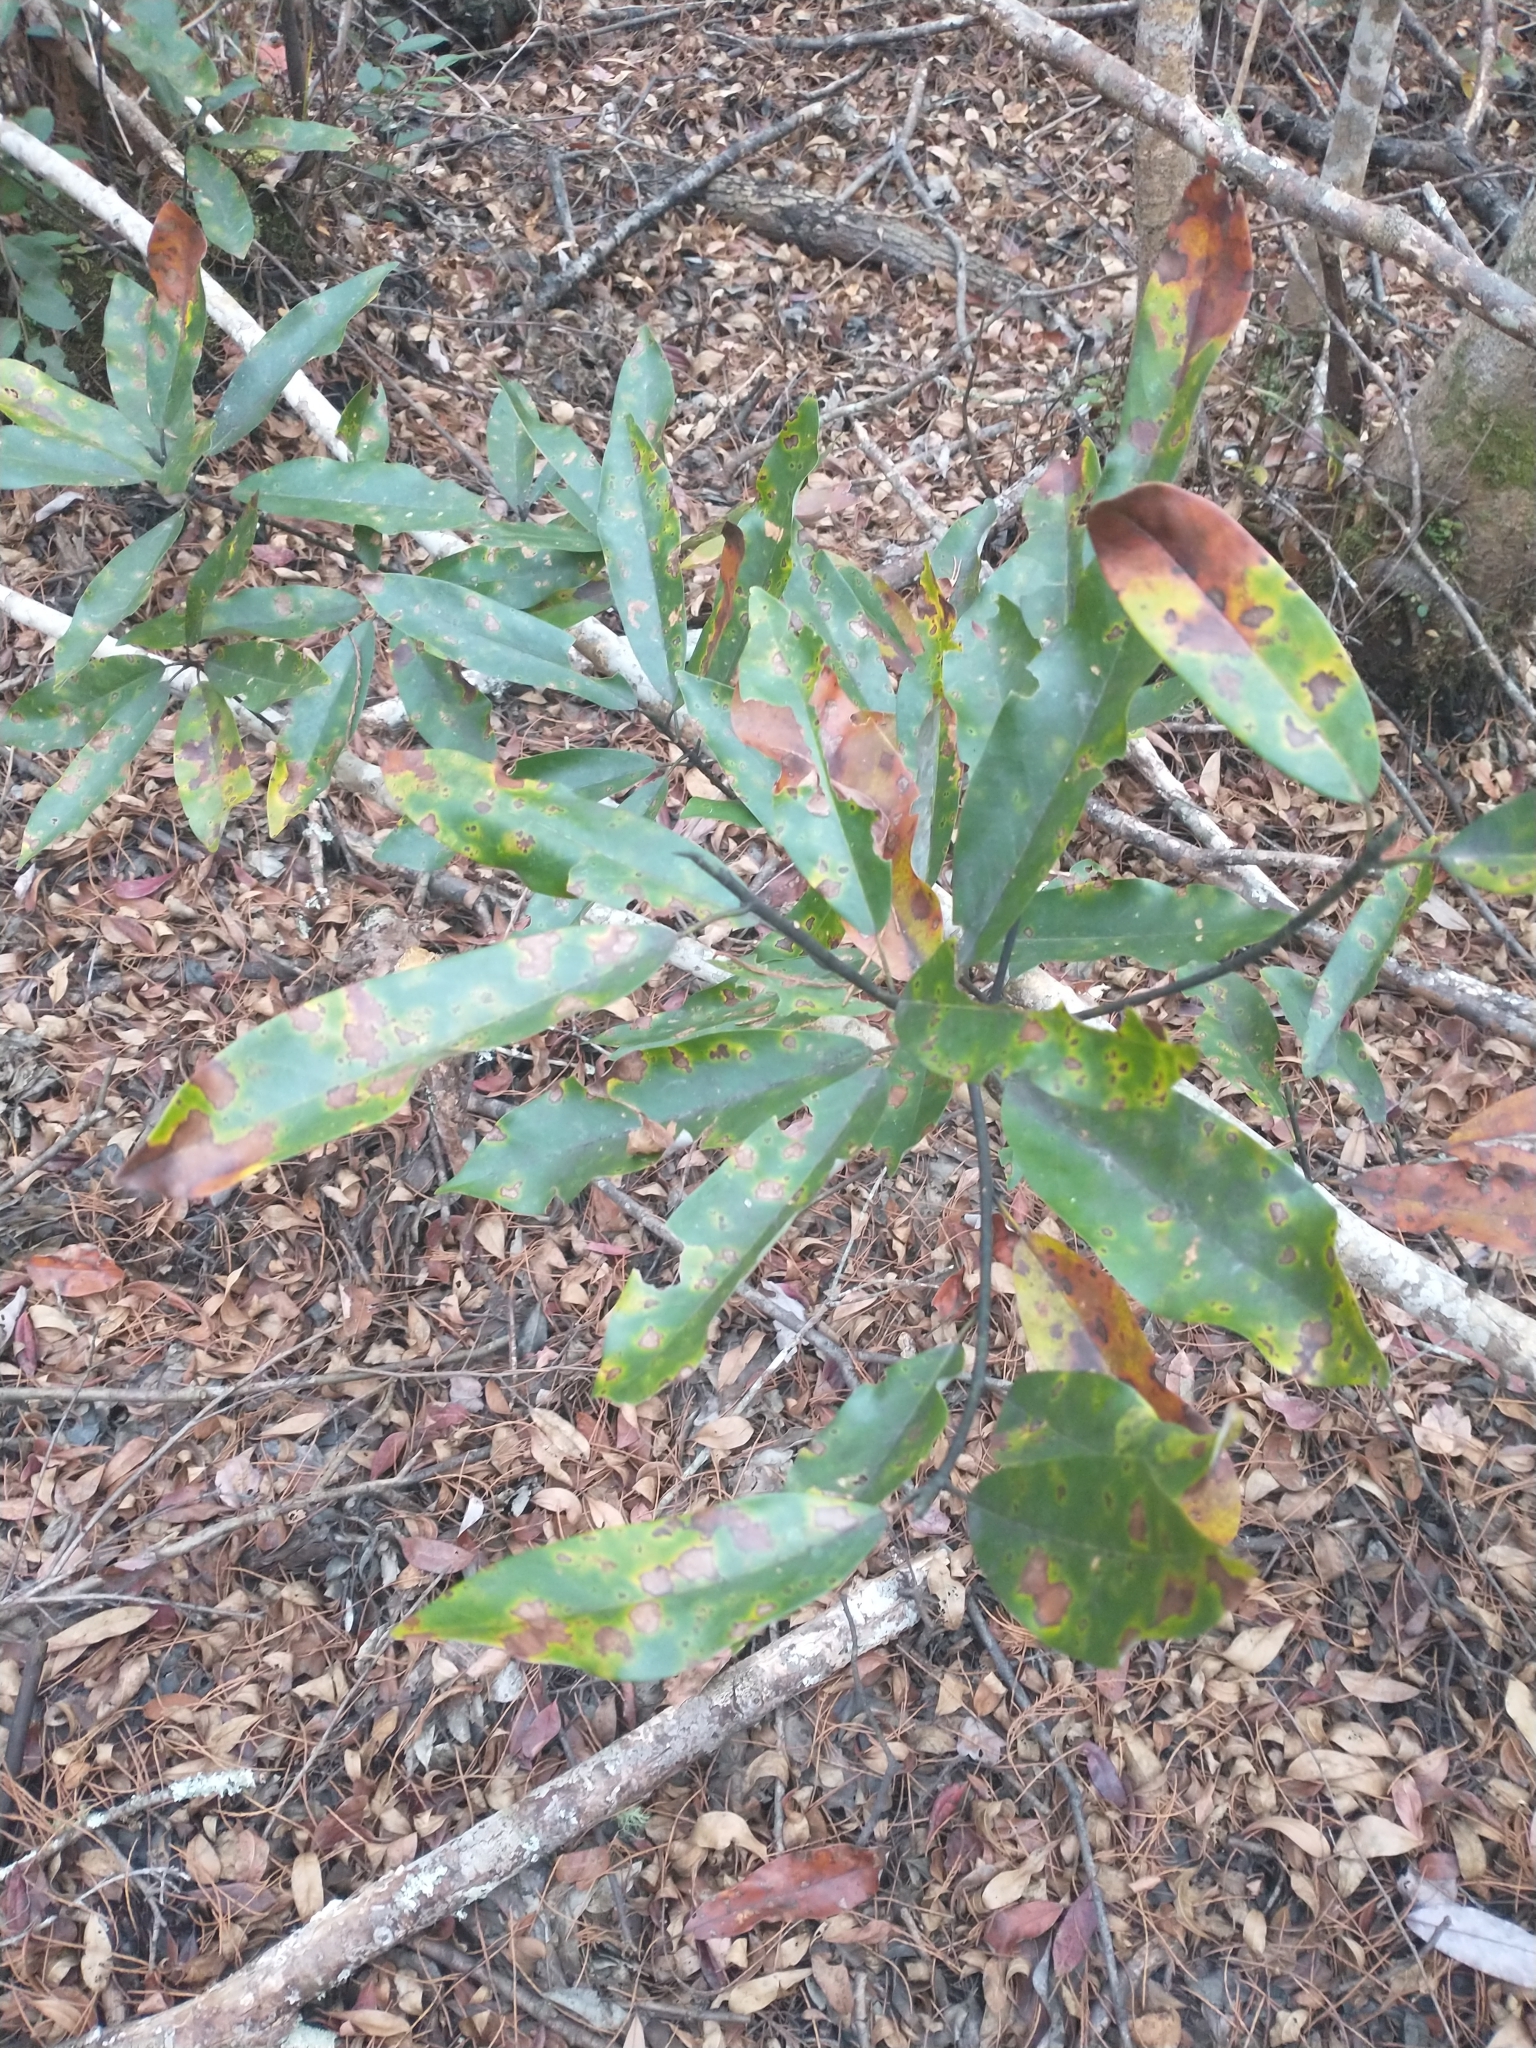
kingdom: Plantae
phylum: Tracheophyta
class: Magnoliopsida
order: Magnoliales
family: Magnoliaceae
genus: Magnolia
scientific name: Magnolia virginiana
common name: Swamp bay
